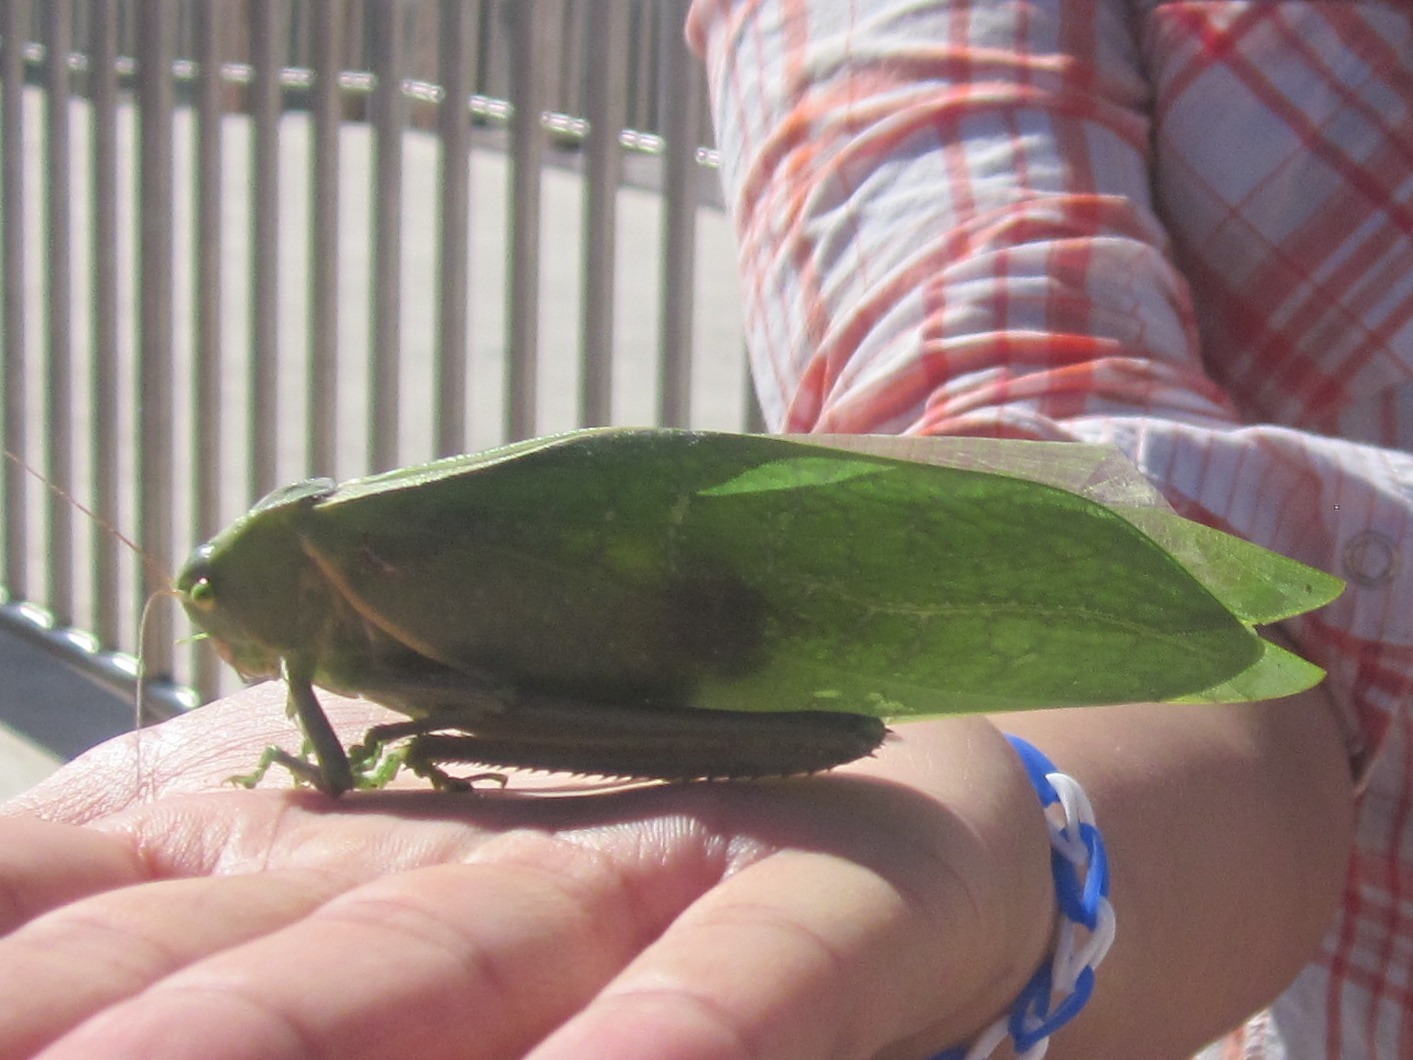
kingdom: Animalia
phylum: Arthropoda
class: Insecta
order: Orthoptera
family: Tettigoniidae
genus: Stilpnochlora
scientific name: Stilpnochlora azteca
